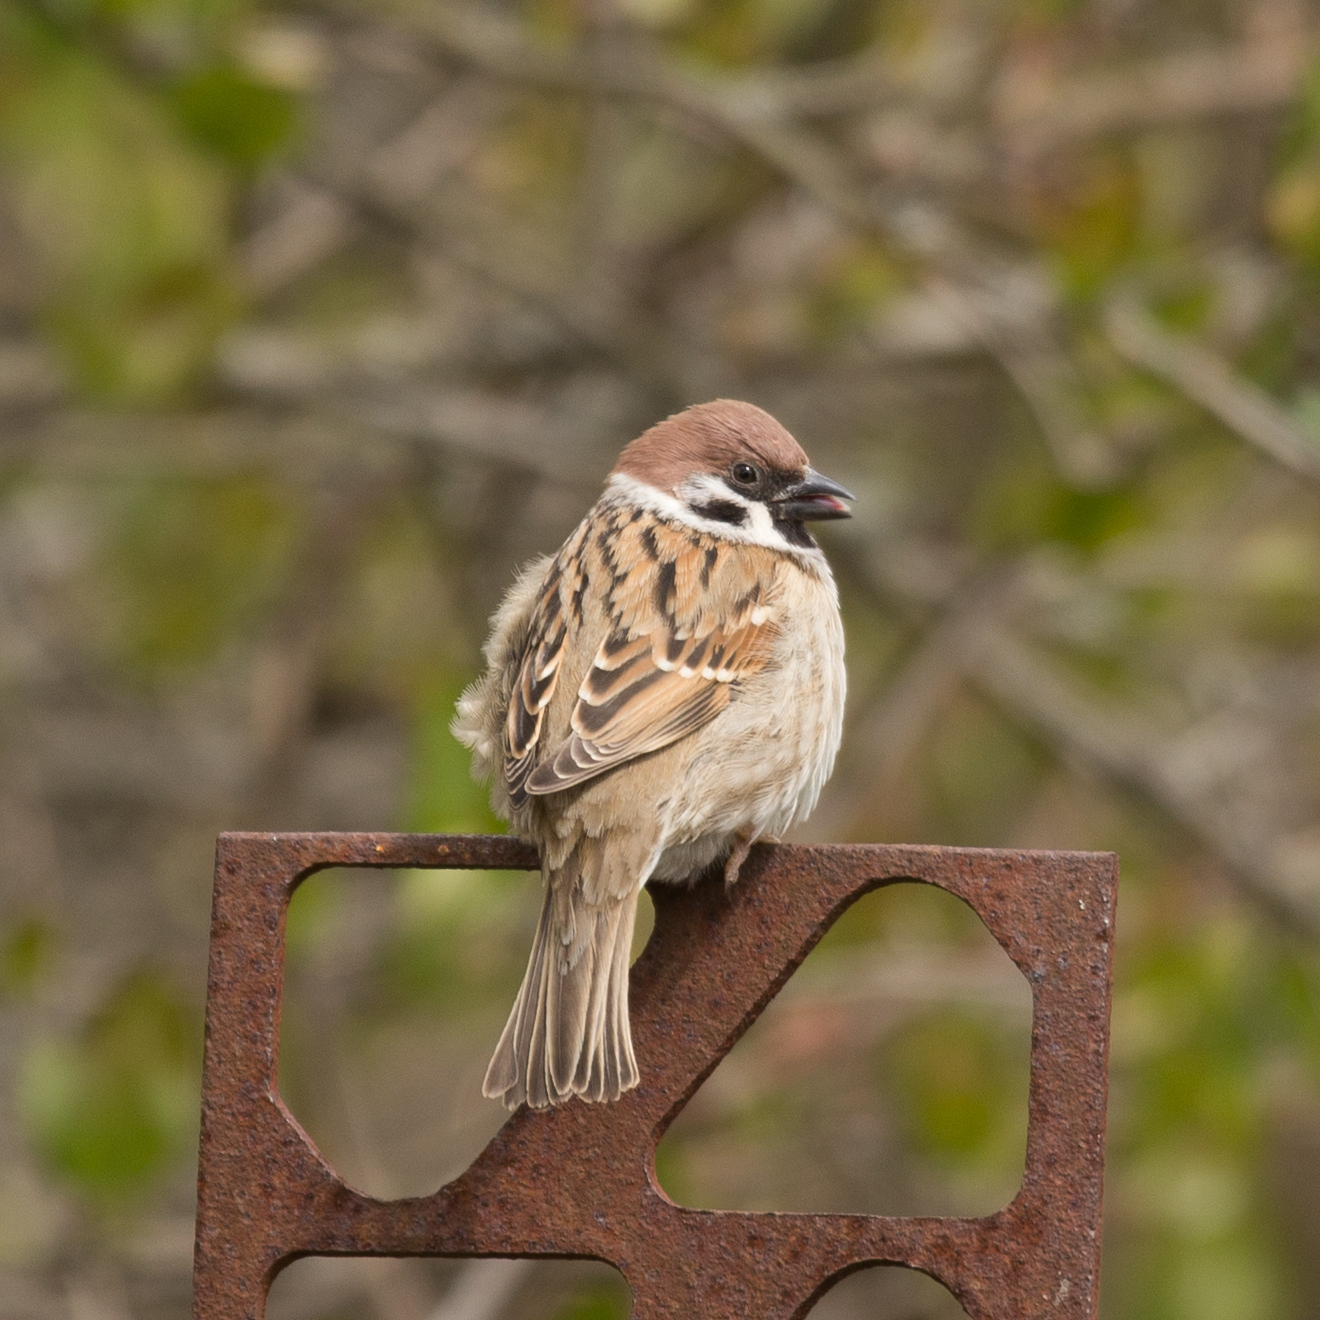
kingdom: Animalia
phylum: Chordata
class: Aves
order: Passeriformes
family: Passeridae
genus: Passer
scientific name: Passer montanus
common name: Eurasian tree sparrow
